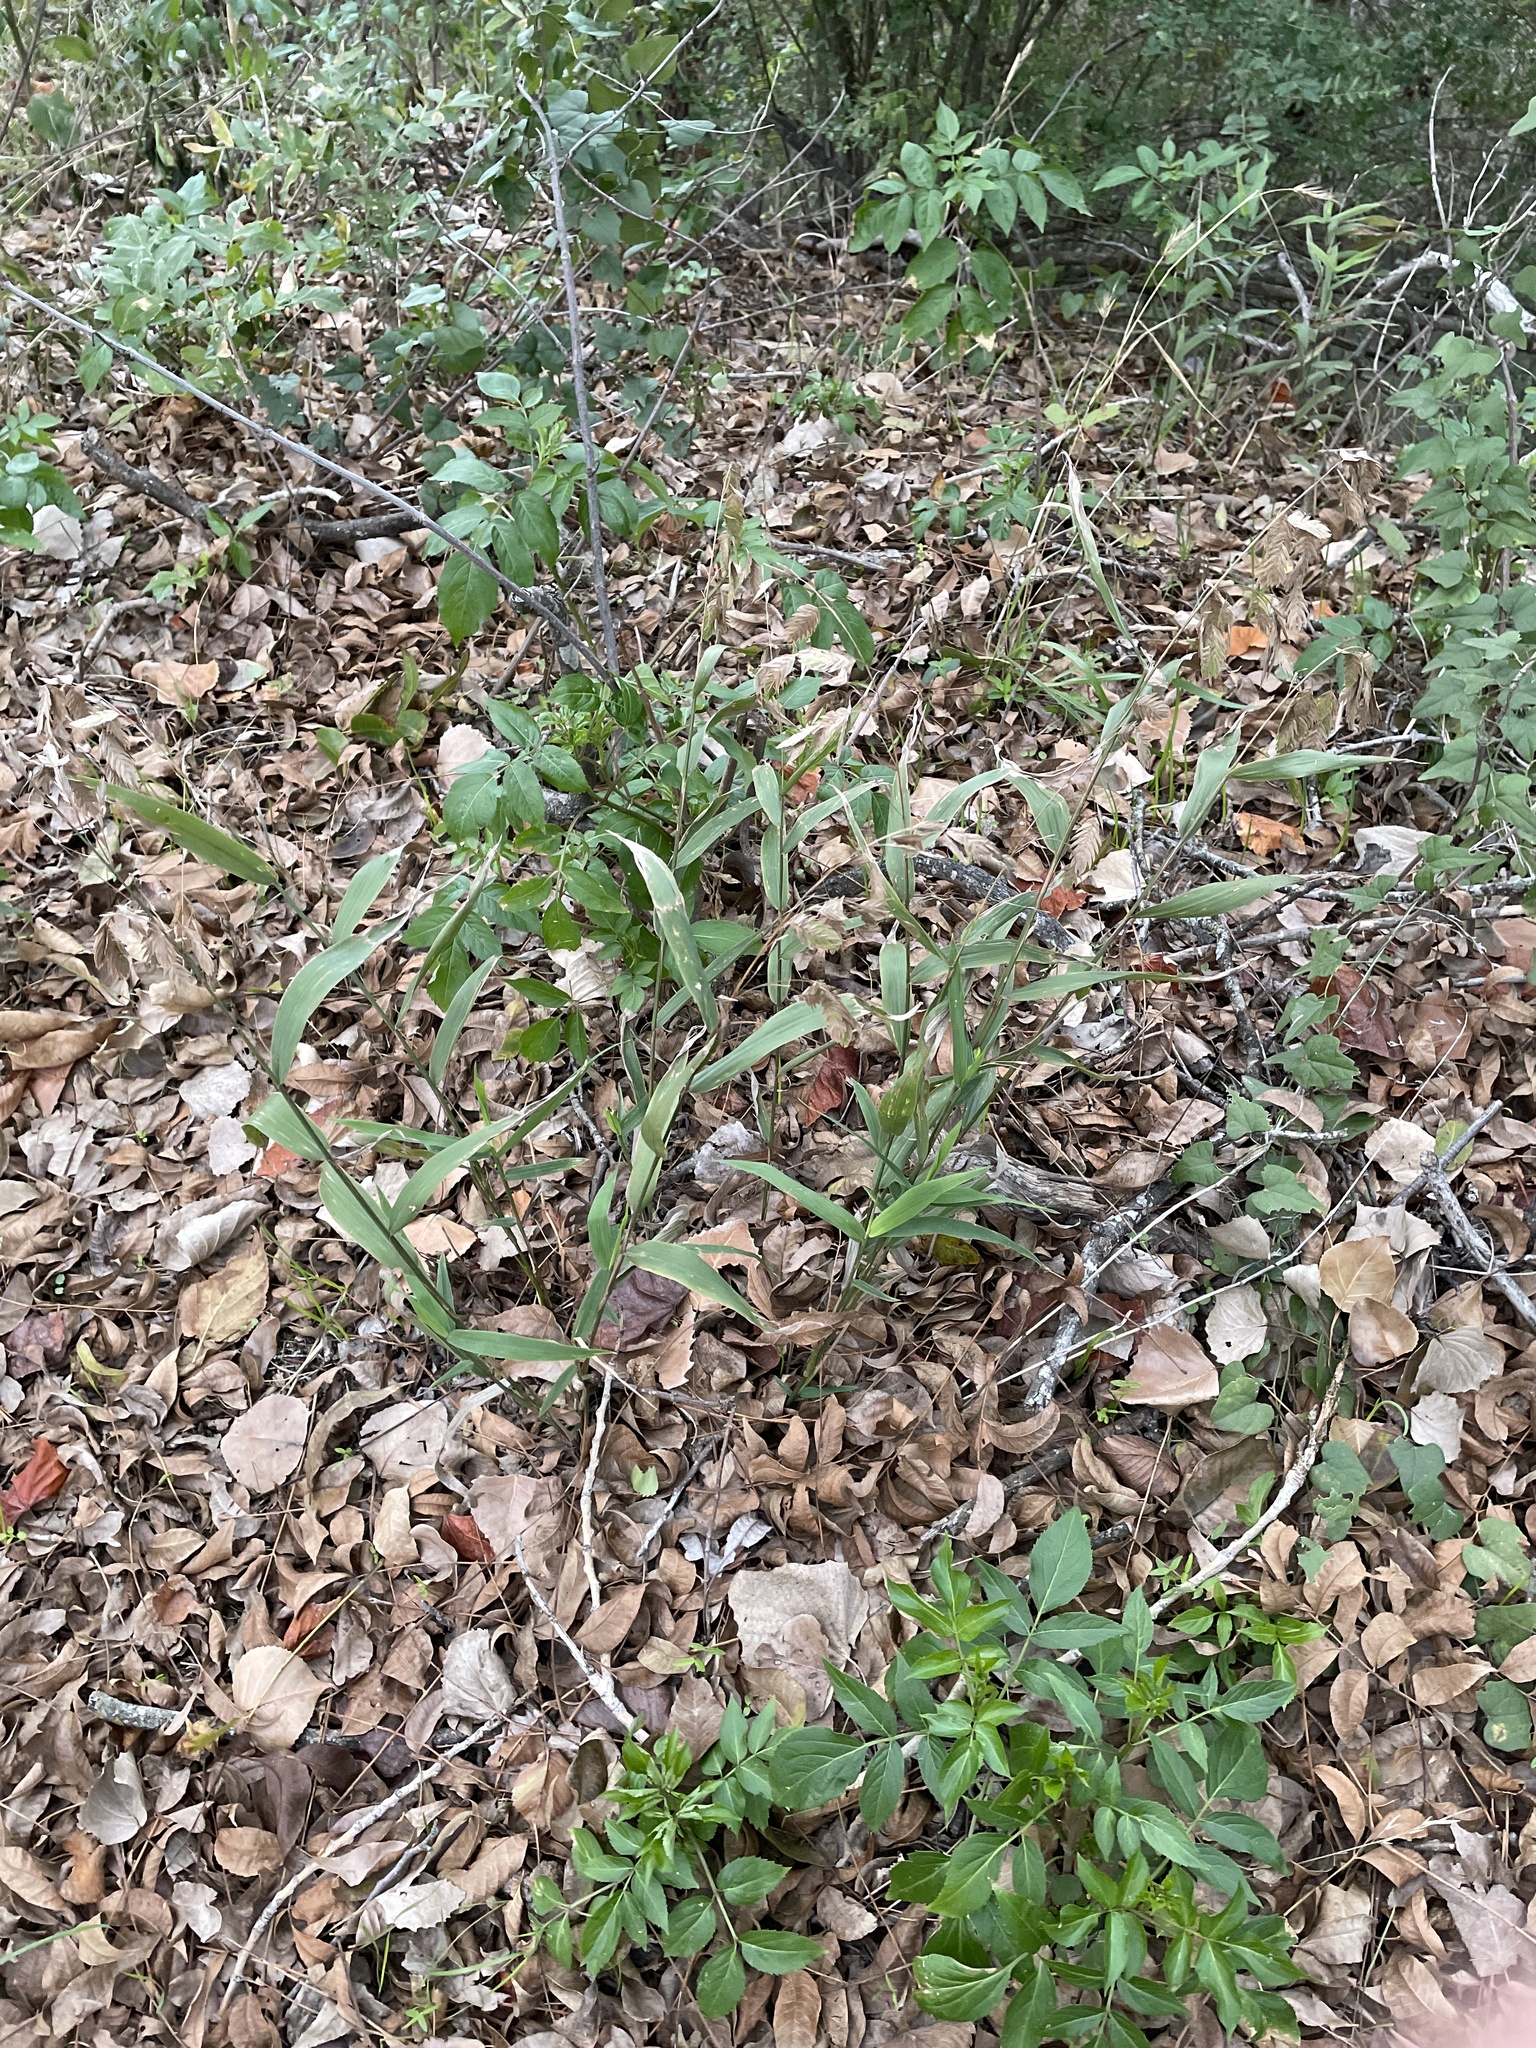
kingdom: Plantae
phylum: Tracheophyta
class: Liliopsida
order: Poales
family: Poaceae
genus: Chasmanthium
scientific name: Chasmanthium latifolium
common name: Broad-leaved chasmanthium
